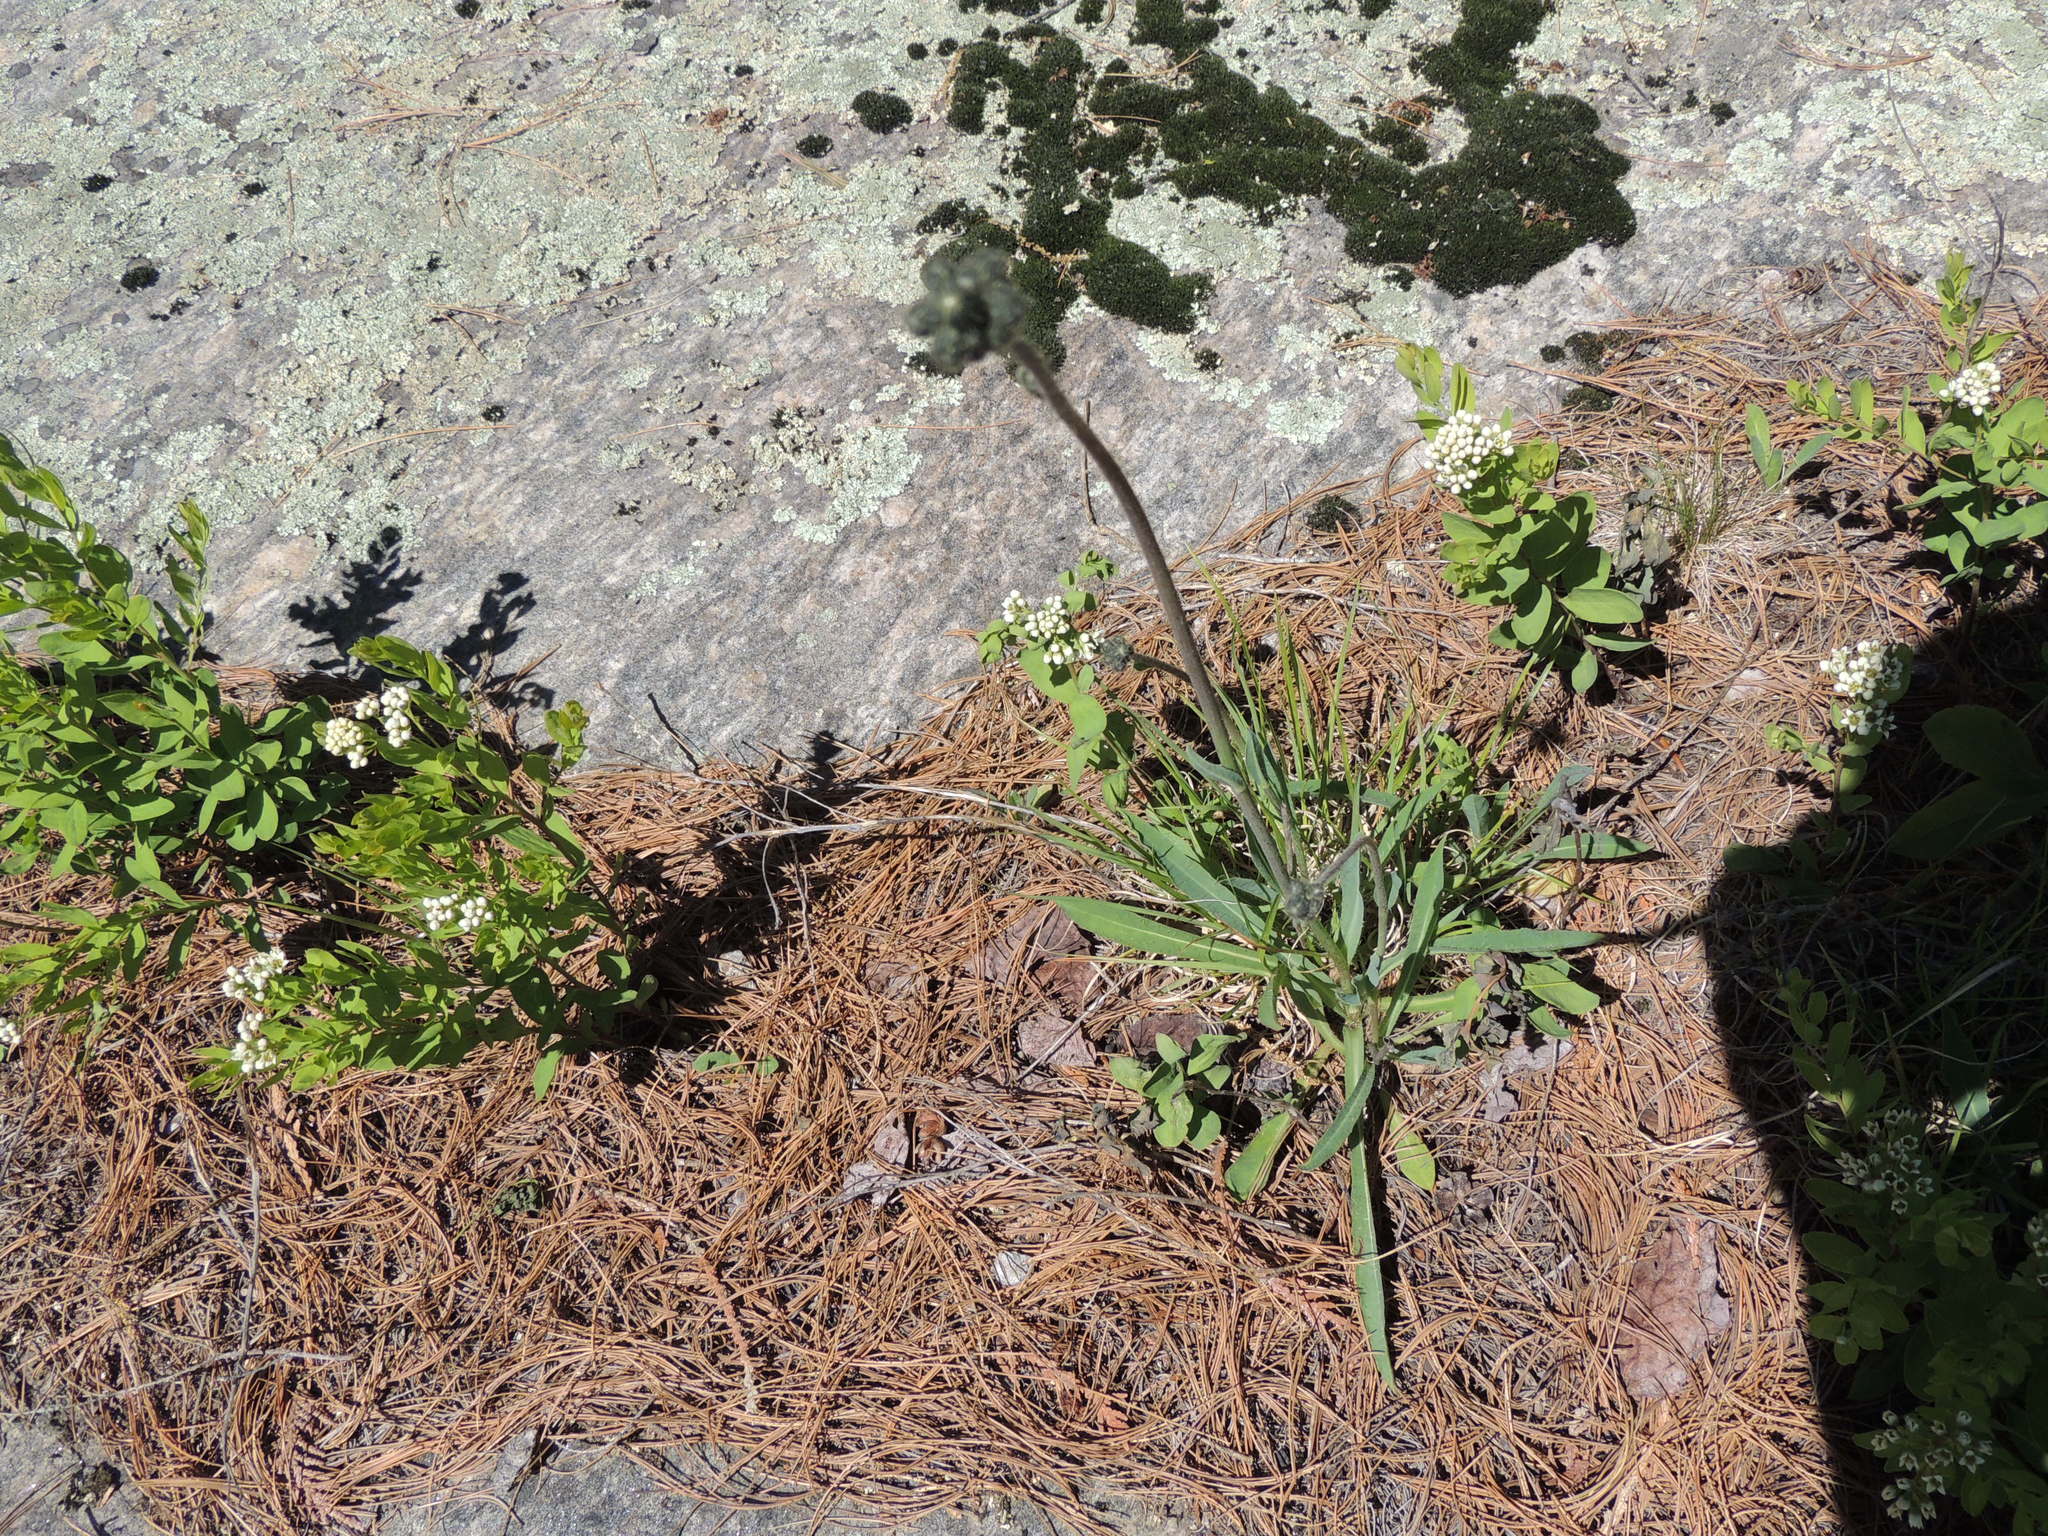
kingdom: Plantae
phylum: Tracheophyta
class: Magnoliopsida
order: Asterales
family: Asteraceae
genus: Pilosella
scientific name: Pilosella piloselloides
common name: Glaucous king-devil
